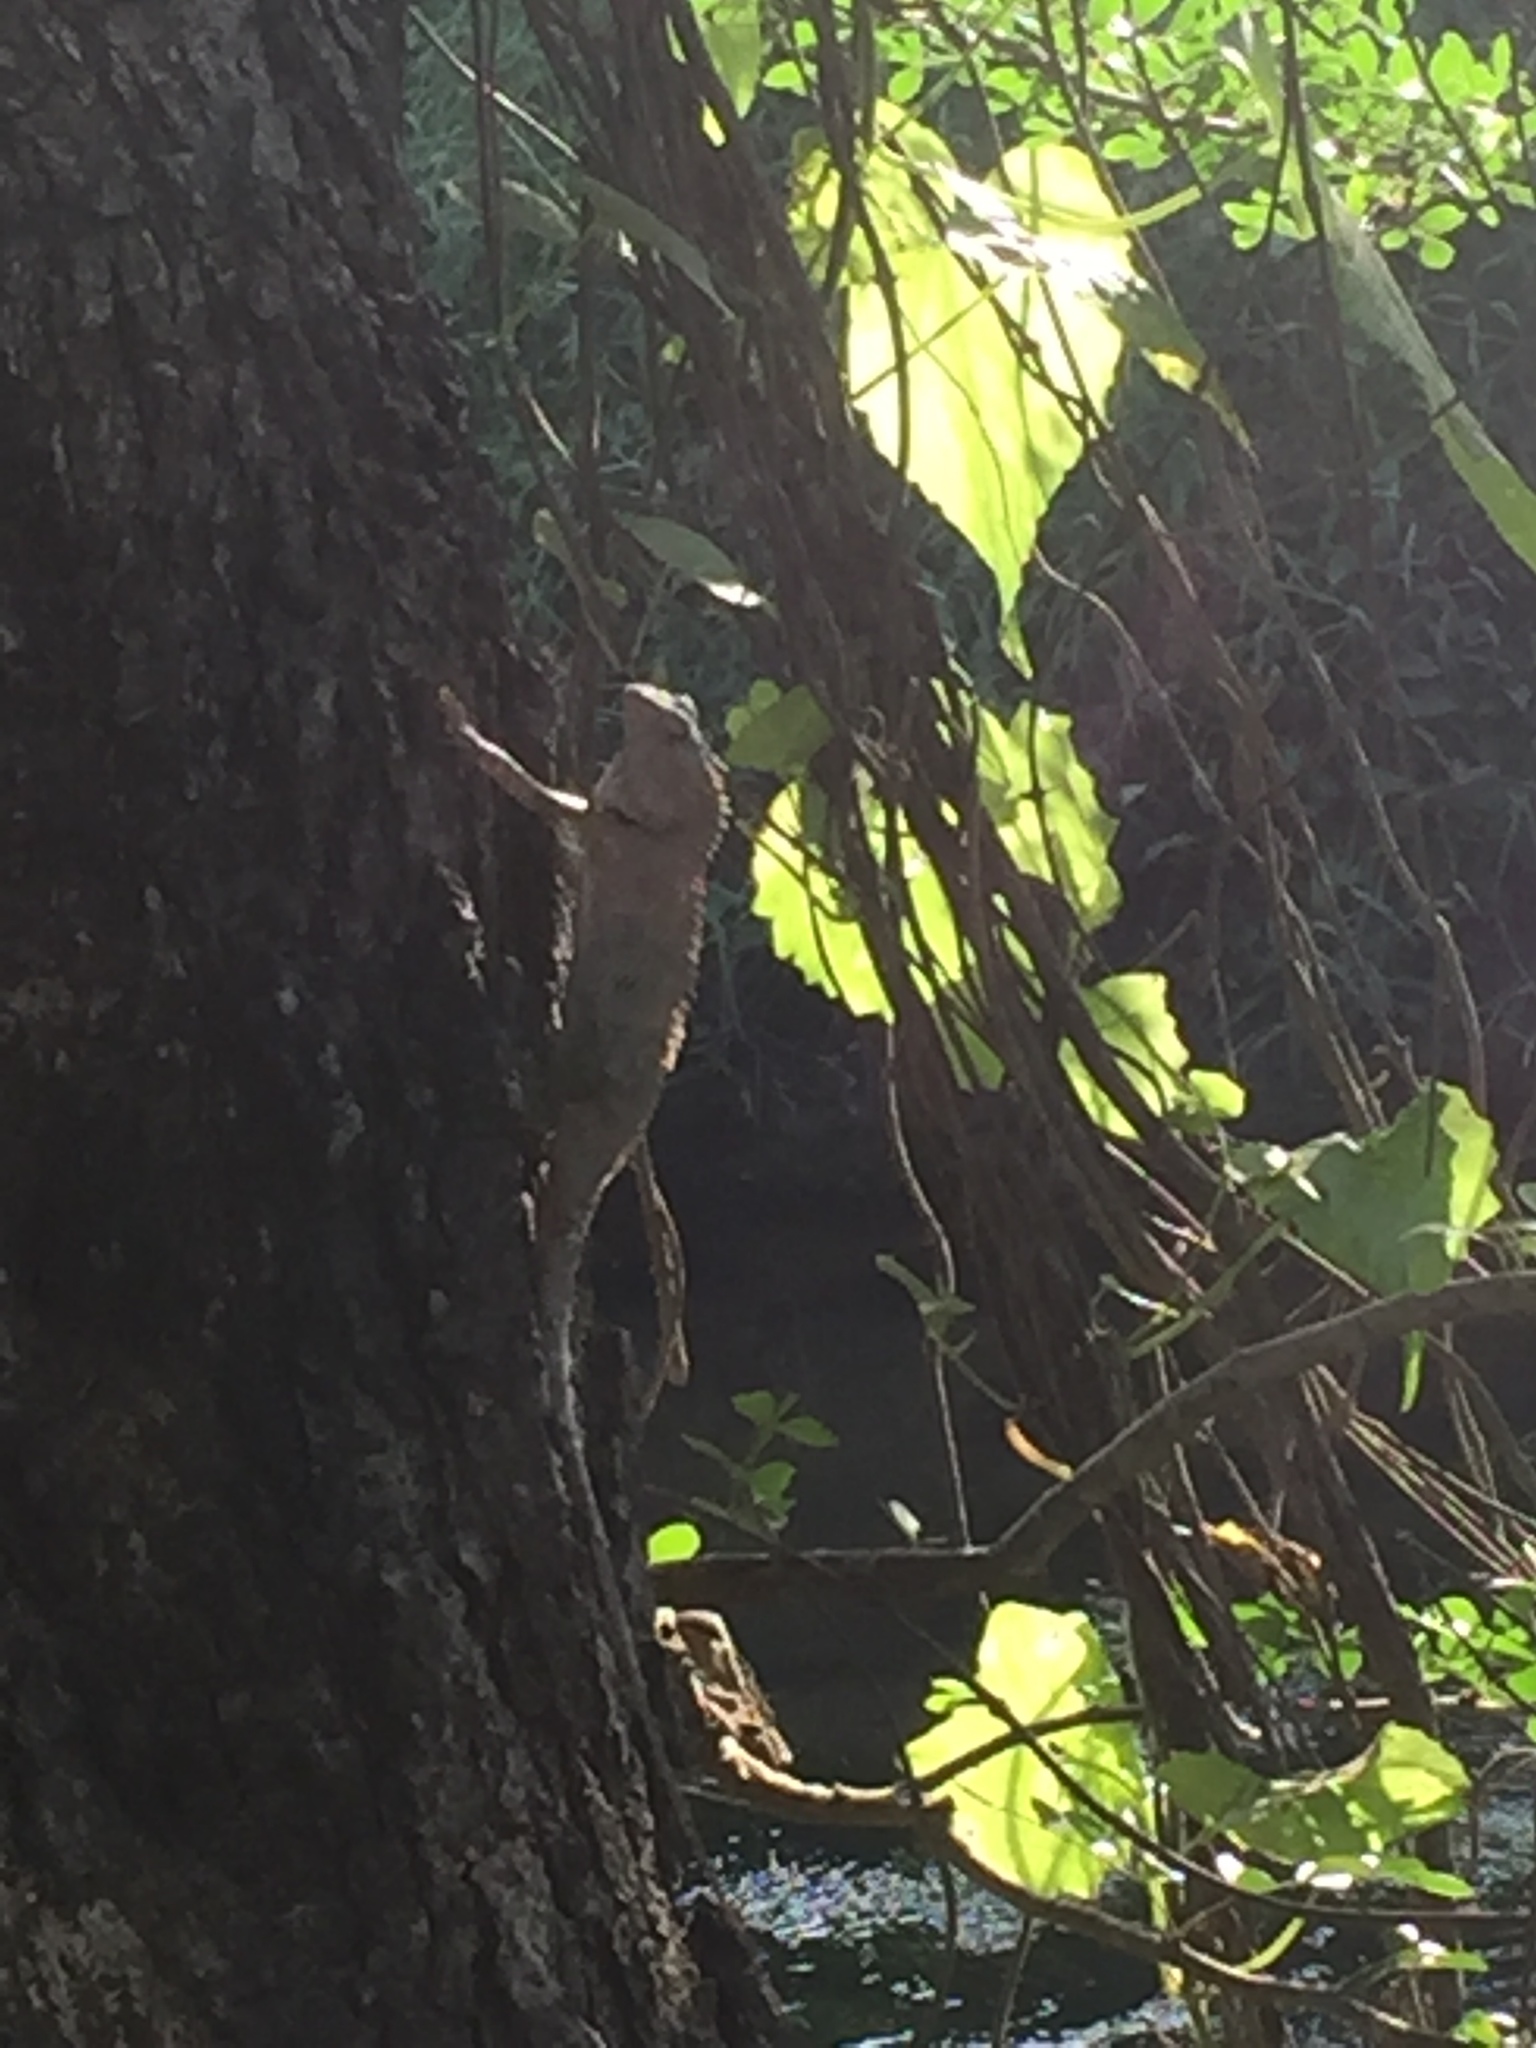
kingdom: Animalia
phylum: Chordata
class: Squamata
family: Agamidae
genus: Calotes
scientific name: Calotes versicolor
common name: Oriental garden lizard
